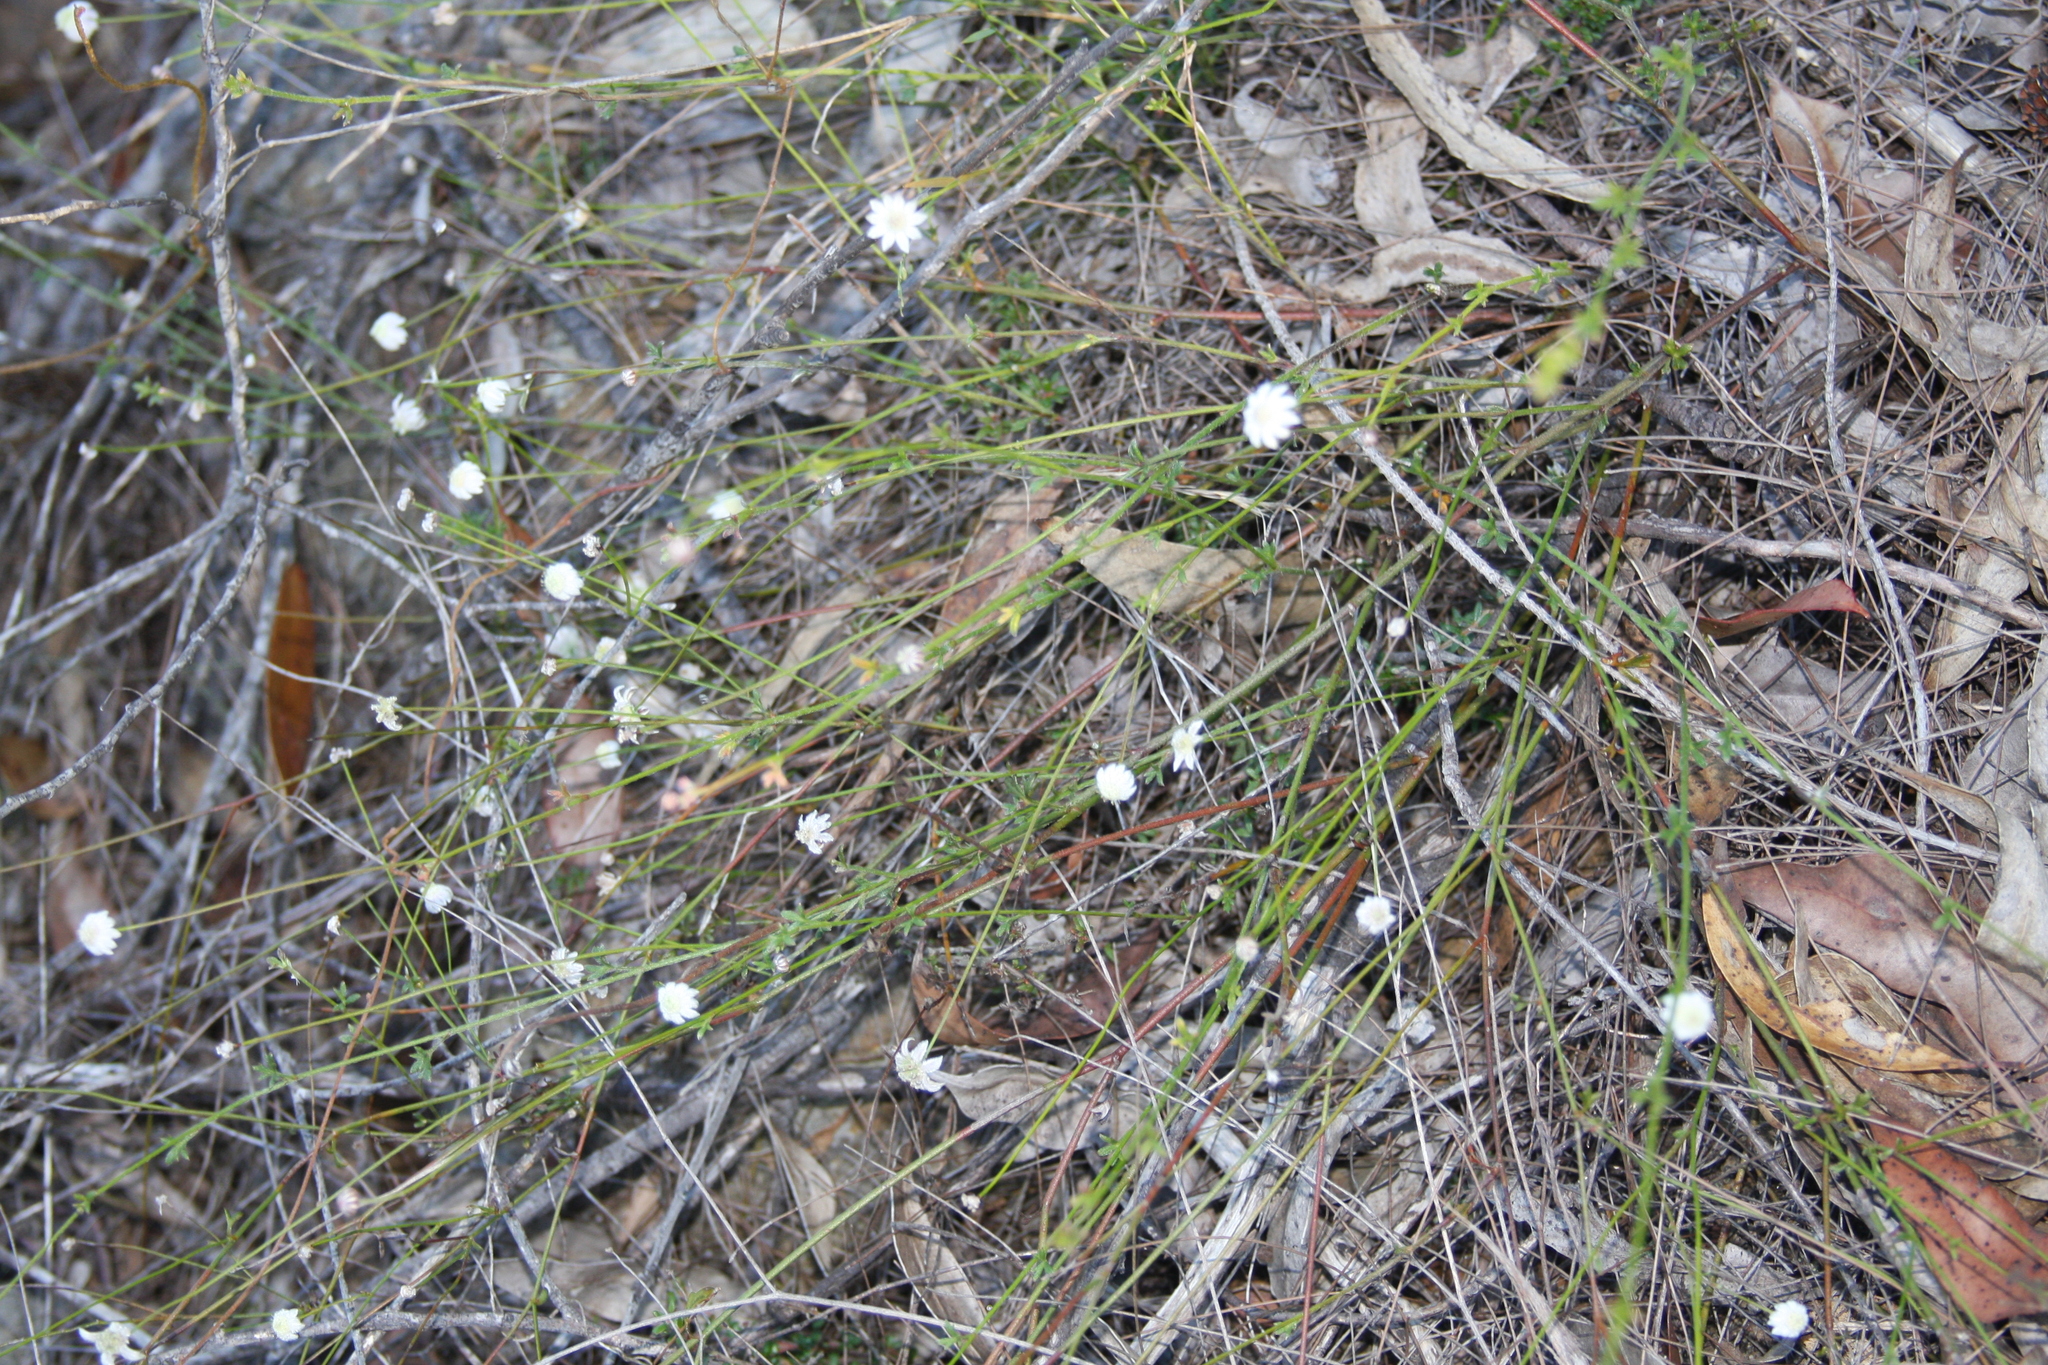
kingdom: Plantae
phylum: Tracheophyta
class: Magnoliopsida
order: Apiales
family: Apiaceae
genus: Actinotus
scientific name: Actinotus minor
